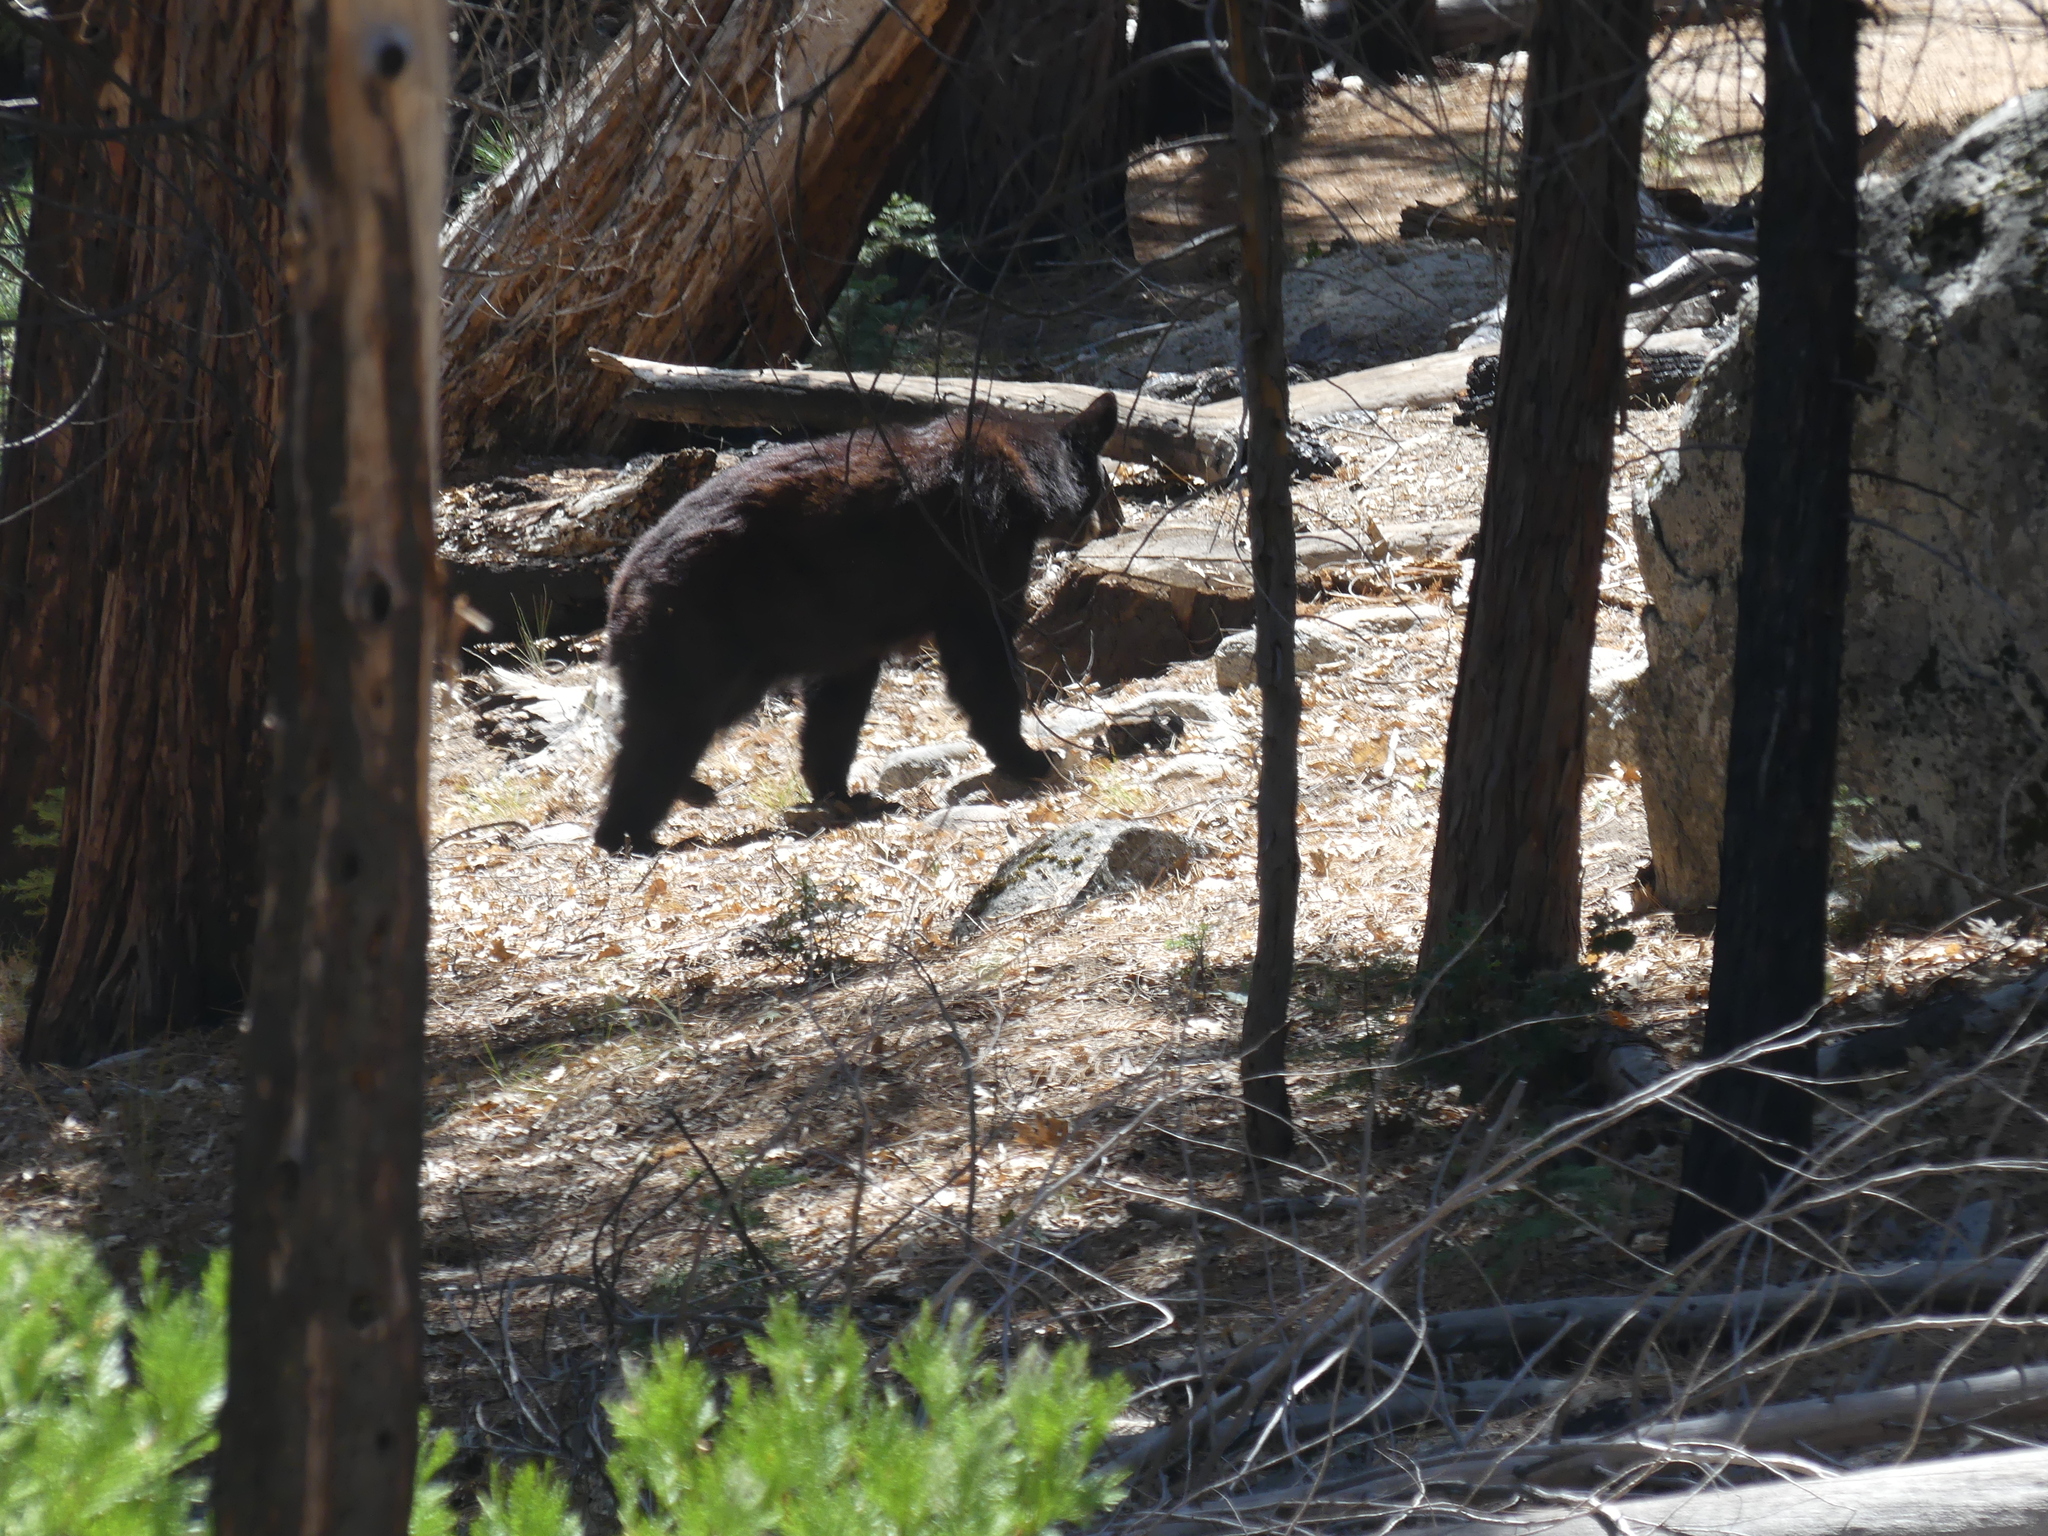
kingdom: Animalia
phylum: Chordata
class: Mammalia
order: Carnivora
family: Ursidae
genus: Ursus
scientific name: Ursus americanus
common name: American black bear
